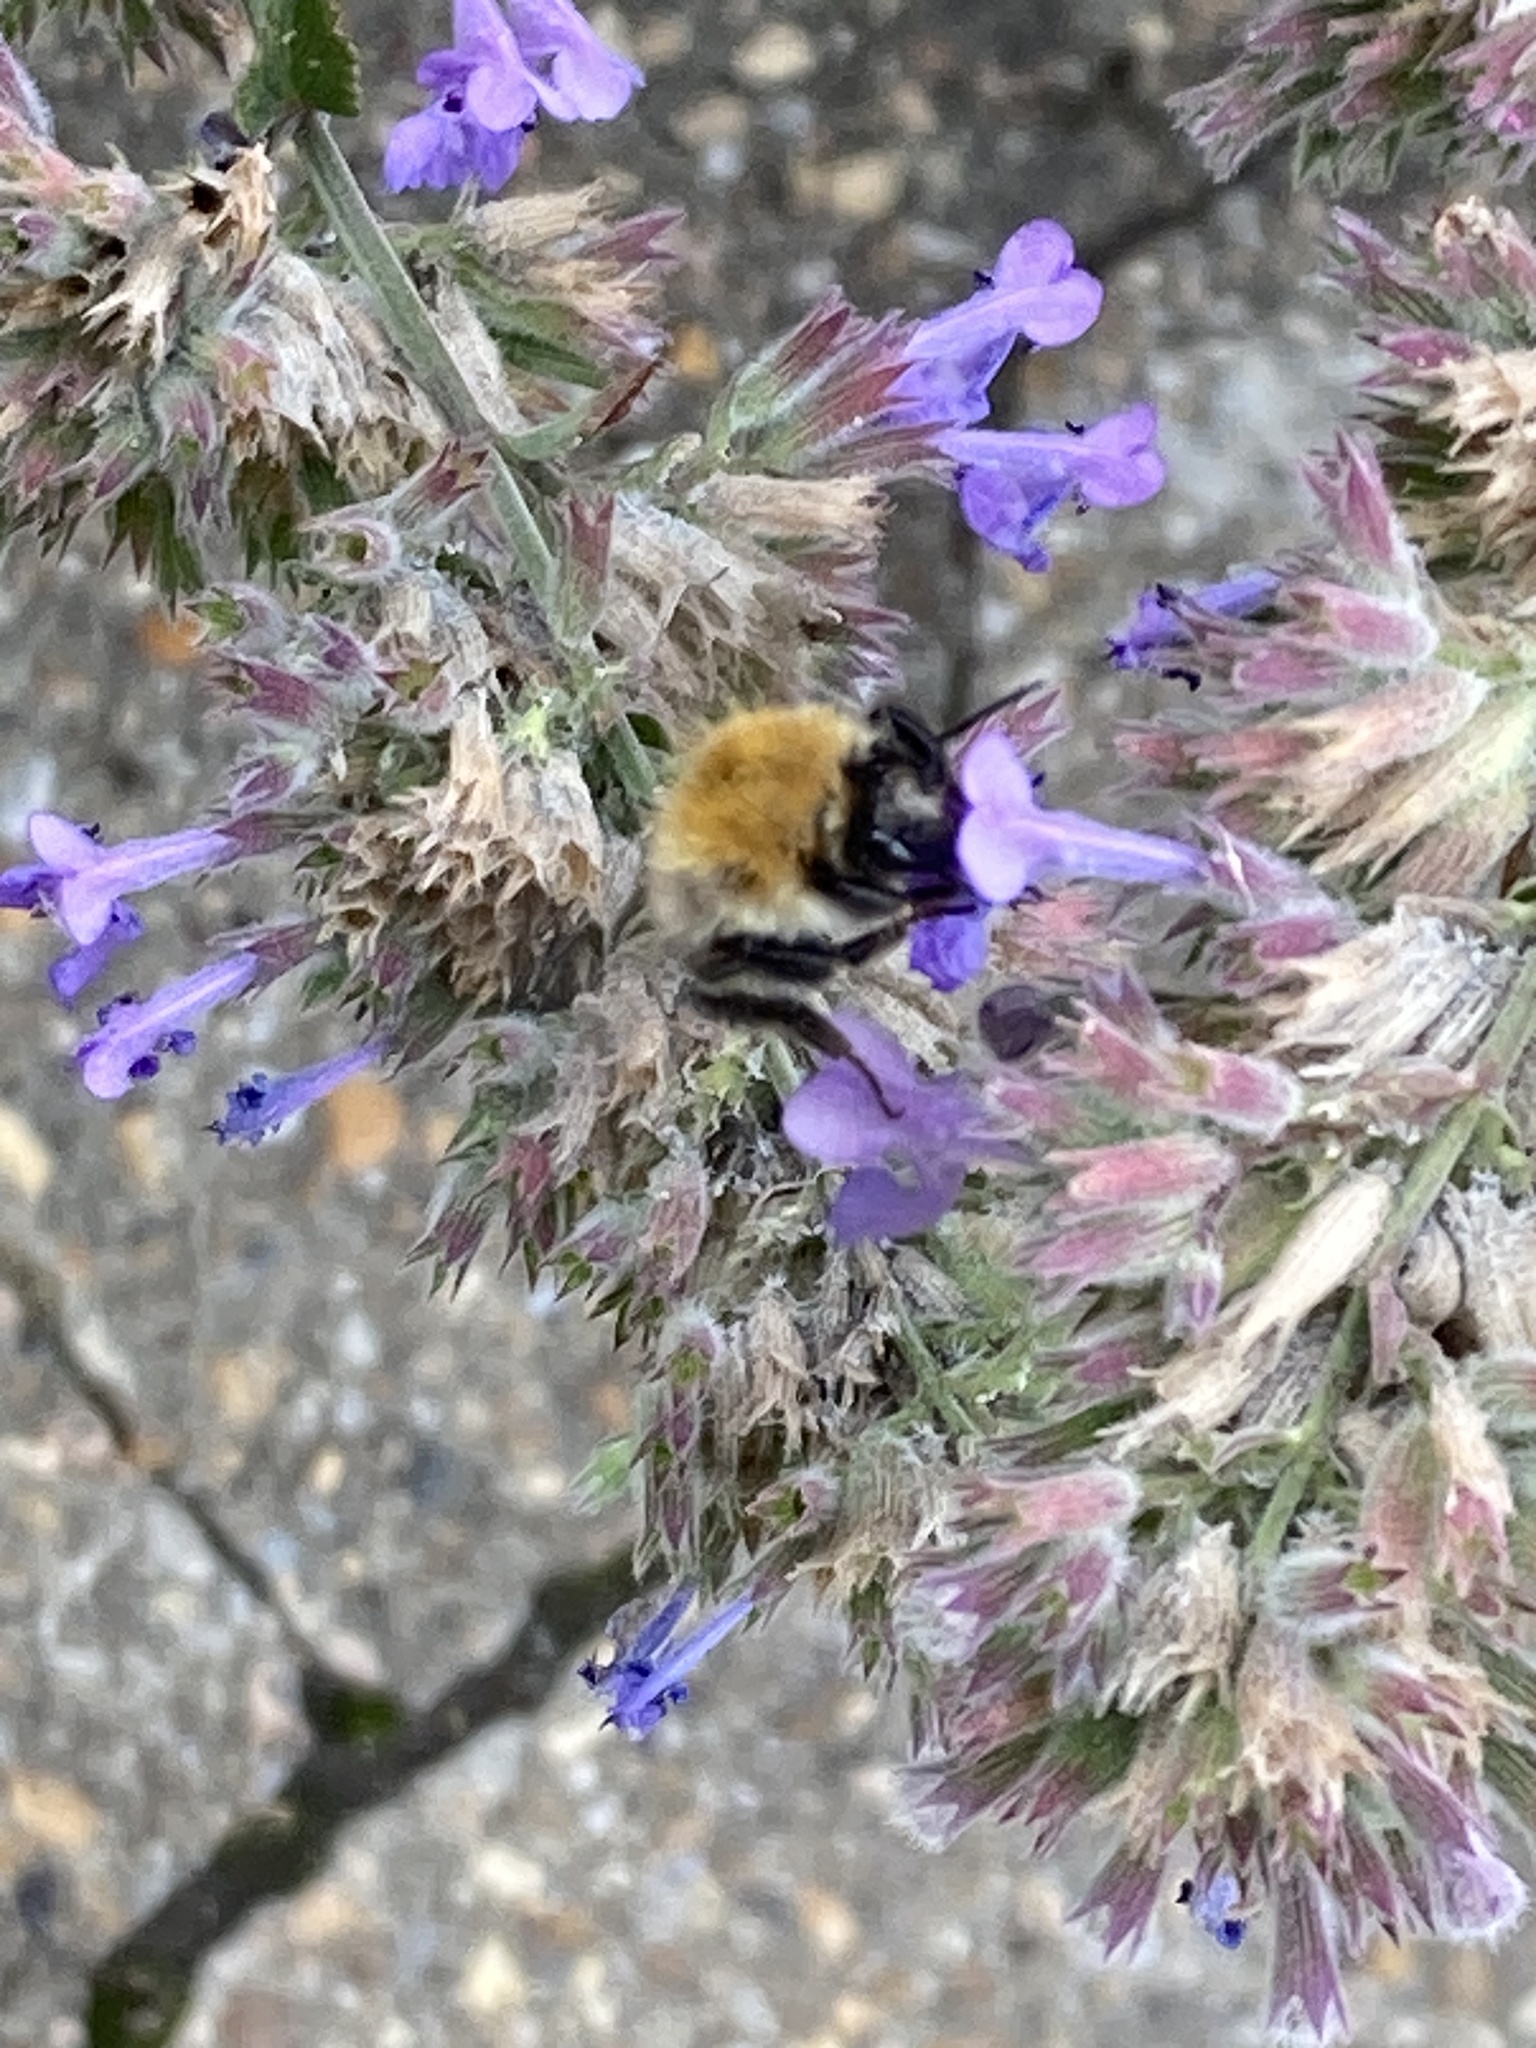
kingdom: Animalia
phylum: Arthropoda
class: Insecta
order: Hymenoptera
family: Apidae
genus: Bombus
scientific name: Bombus pascuorum
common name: Common carder bee
